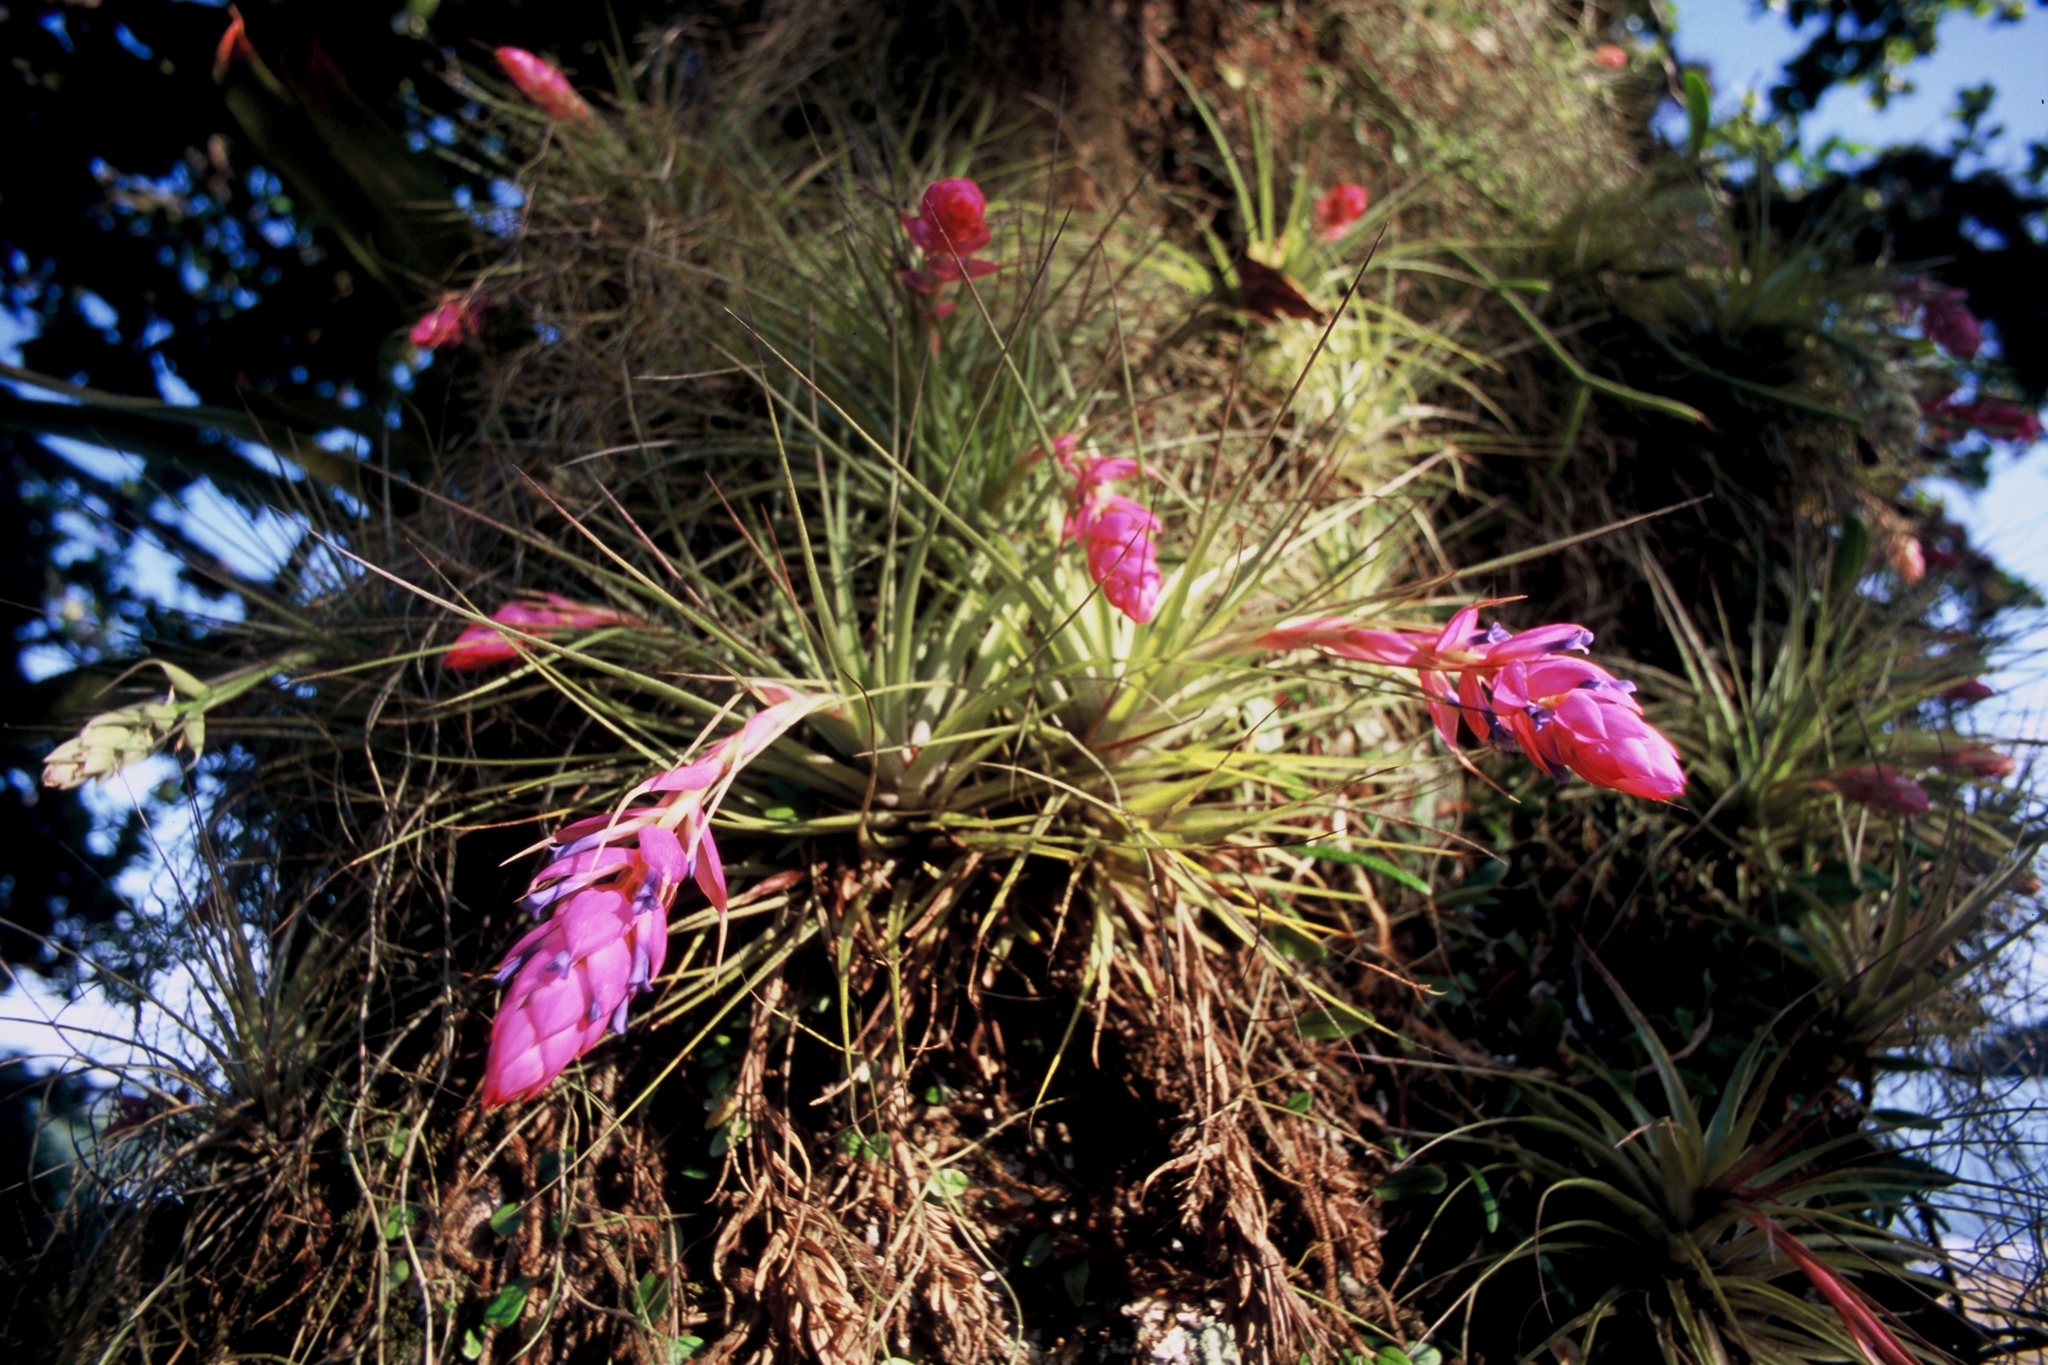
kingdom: Plantae
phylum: Tracheophyta
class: Liliopsida
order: Poales
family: Bromeliaceae
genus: Tillandsia
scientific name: Tillandsia stricta
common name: Airplant
